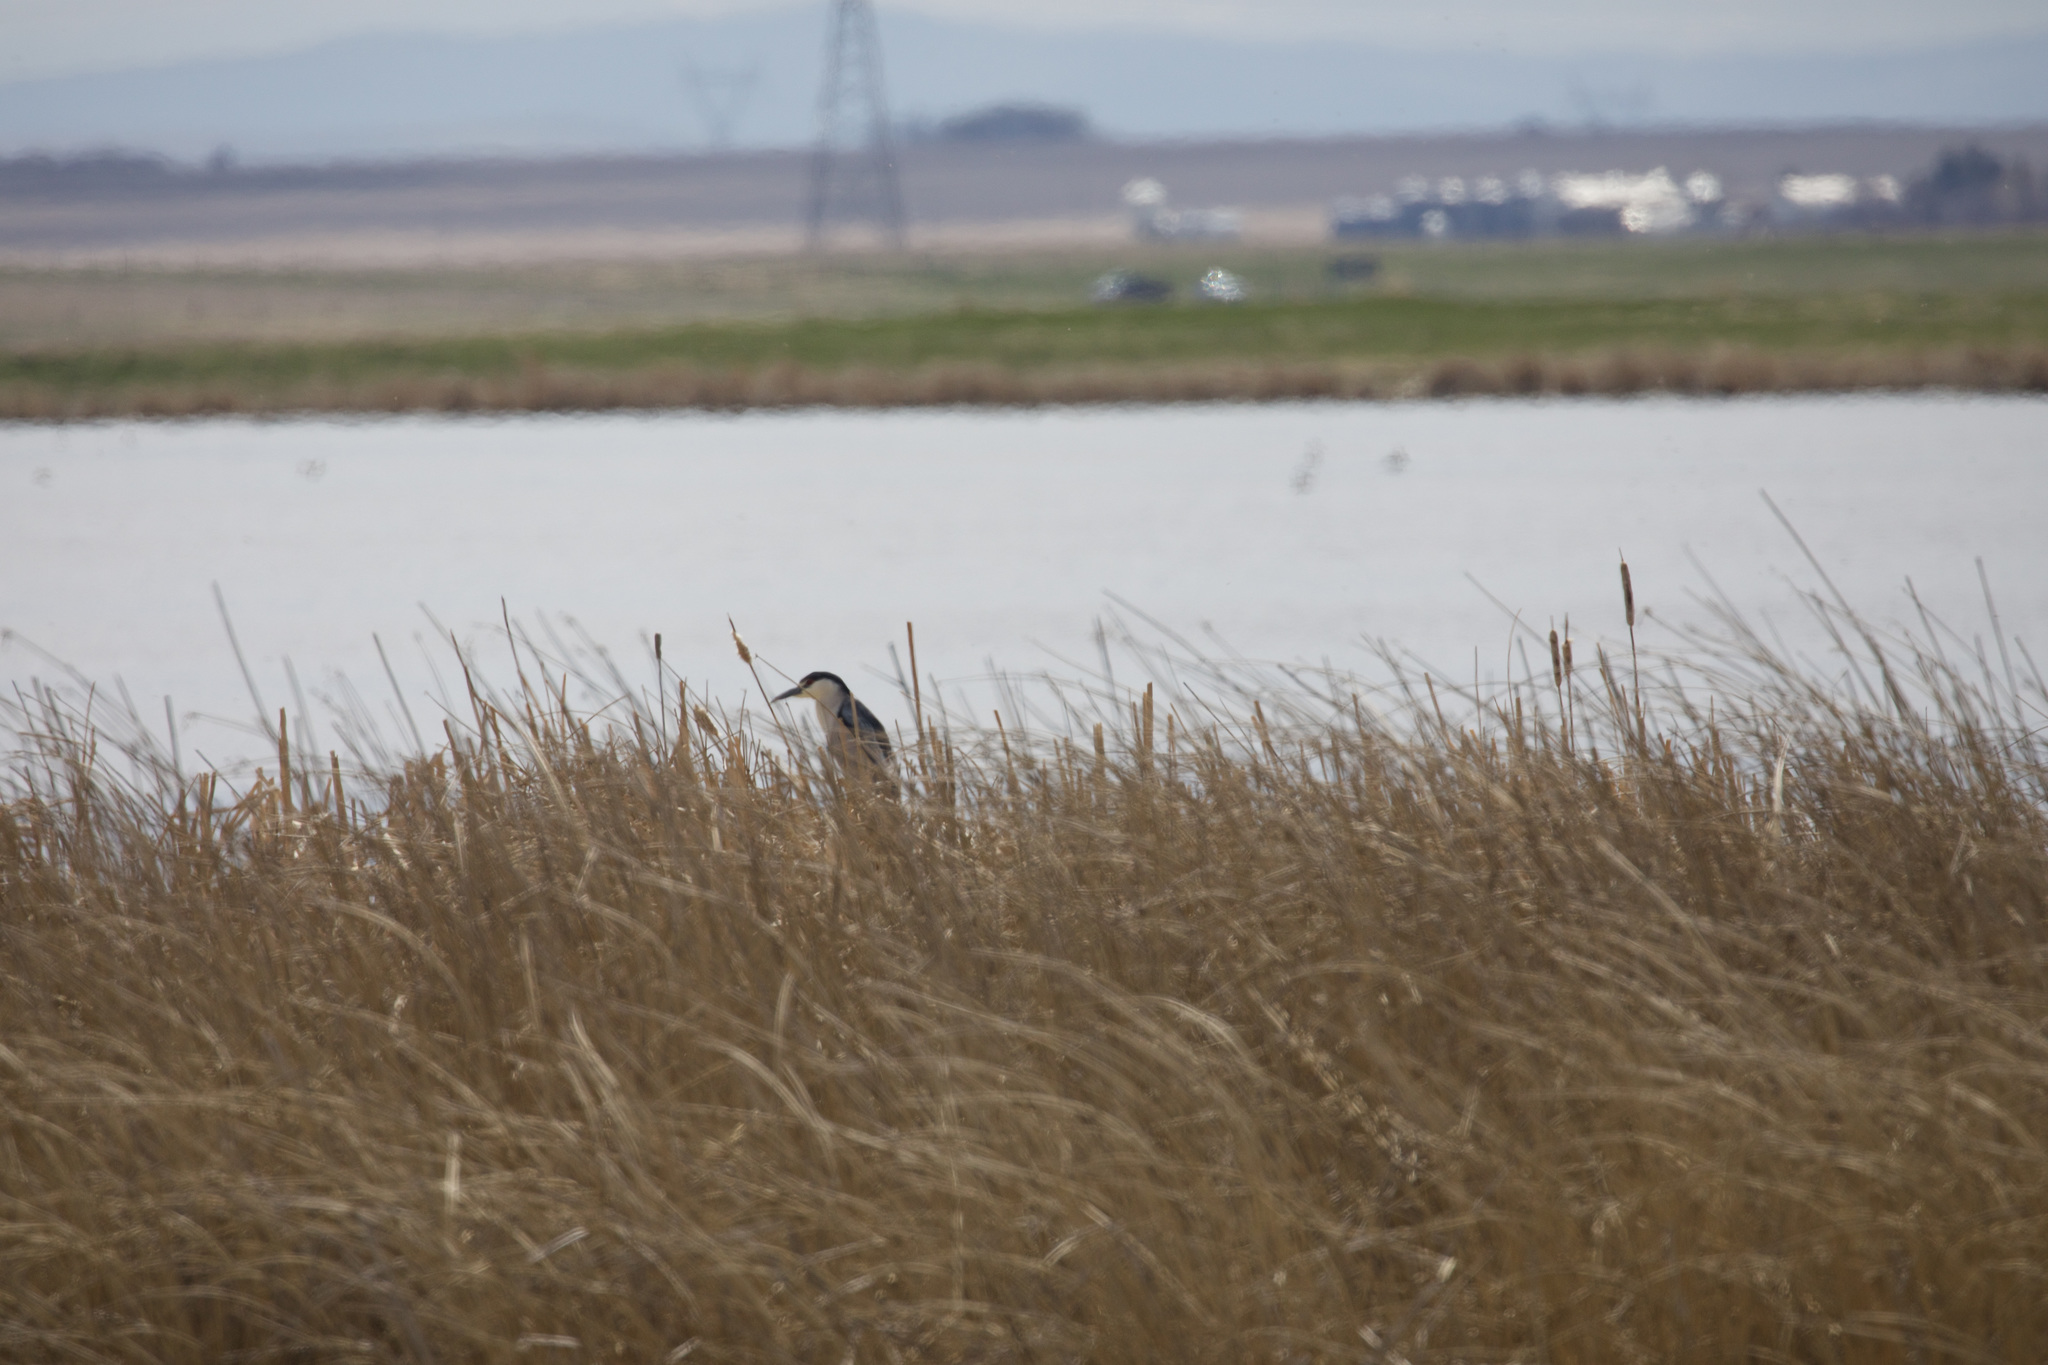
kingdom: Animalia
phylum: Chordata
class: Aves
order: Pelecaniformes
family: Ardeidae
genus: Nycticorax
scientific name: Nycticorax nycticorax
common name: Black-crowned night heron
